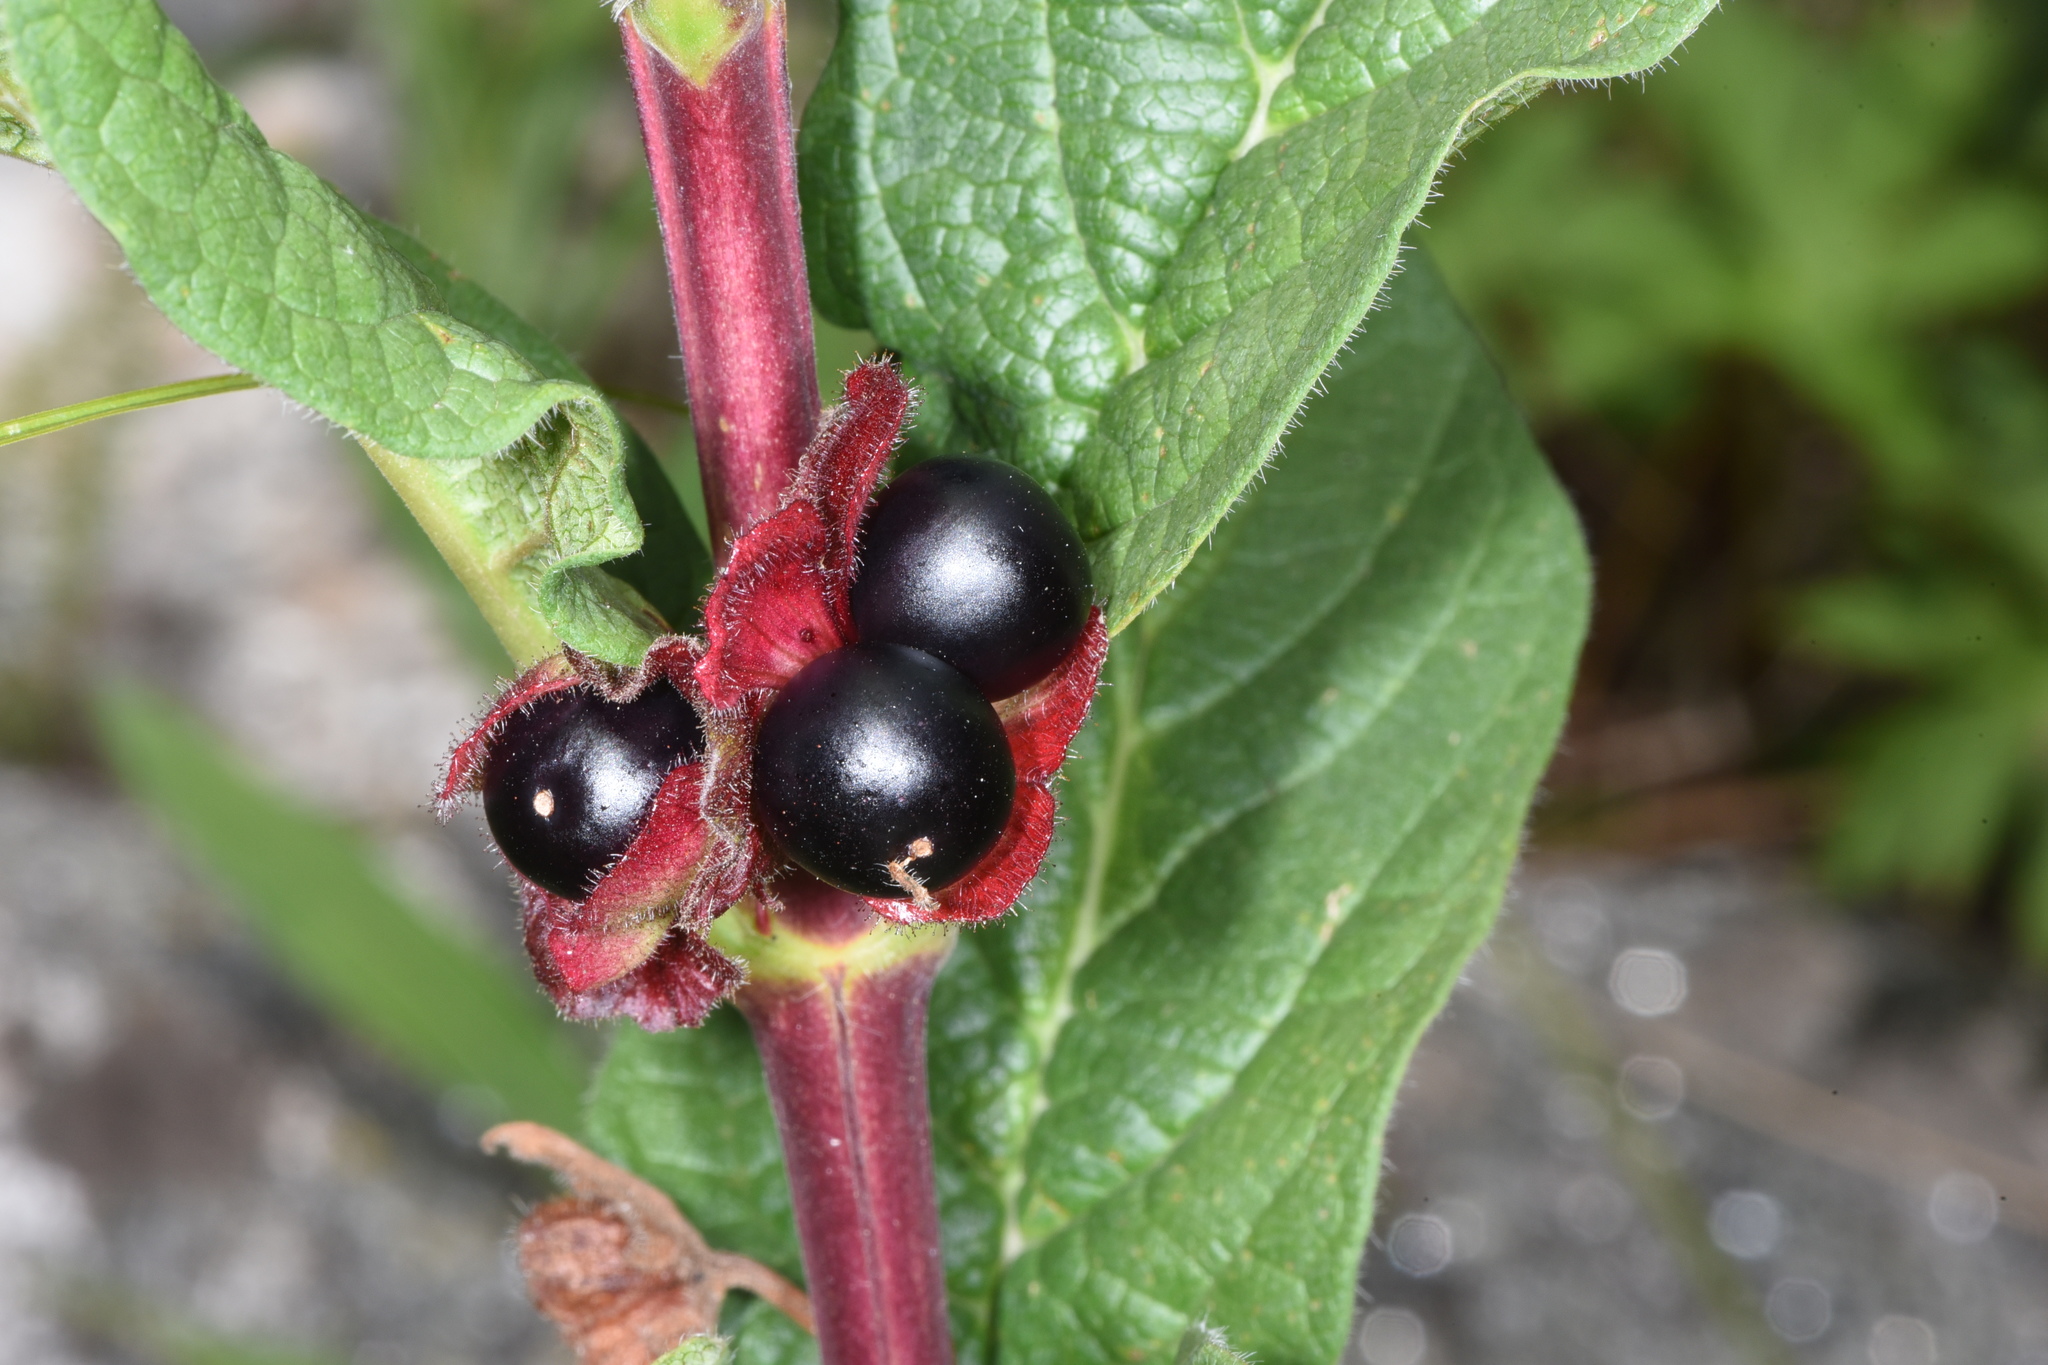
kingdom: Plantae
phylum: Tracheophyta
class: Magnoliopsida
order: Dipsacales
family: Caprifoliaceae
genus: Lonicera
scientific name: Lonicera involucrata
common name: Californian honeysuckle
